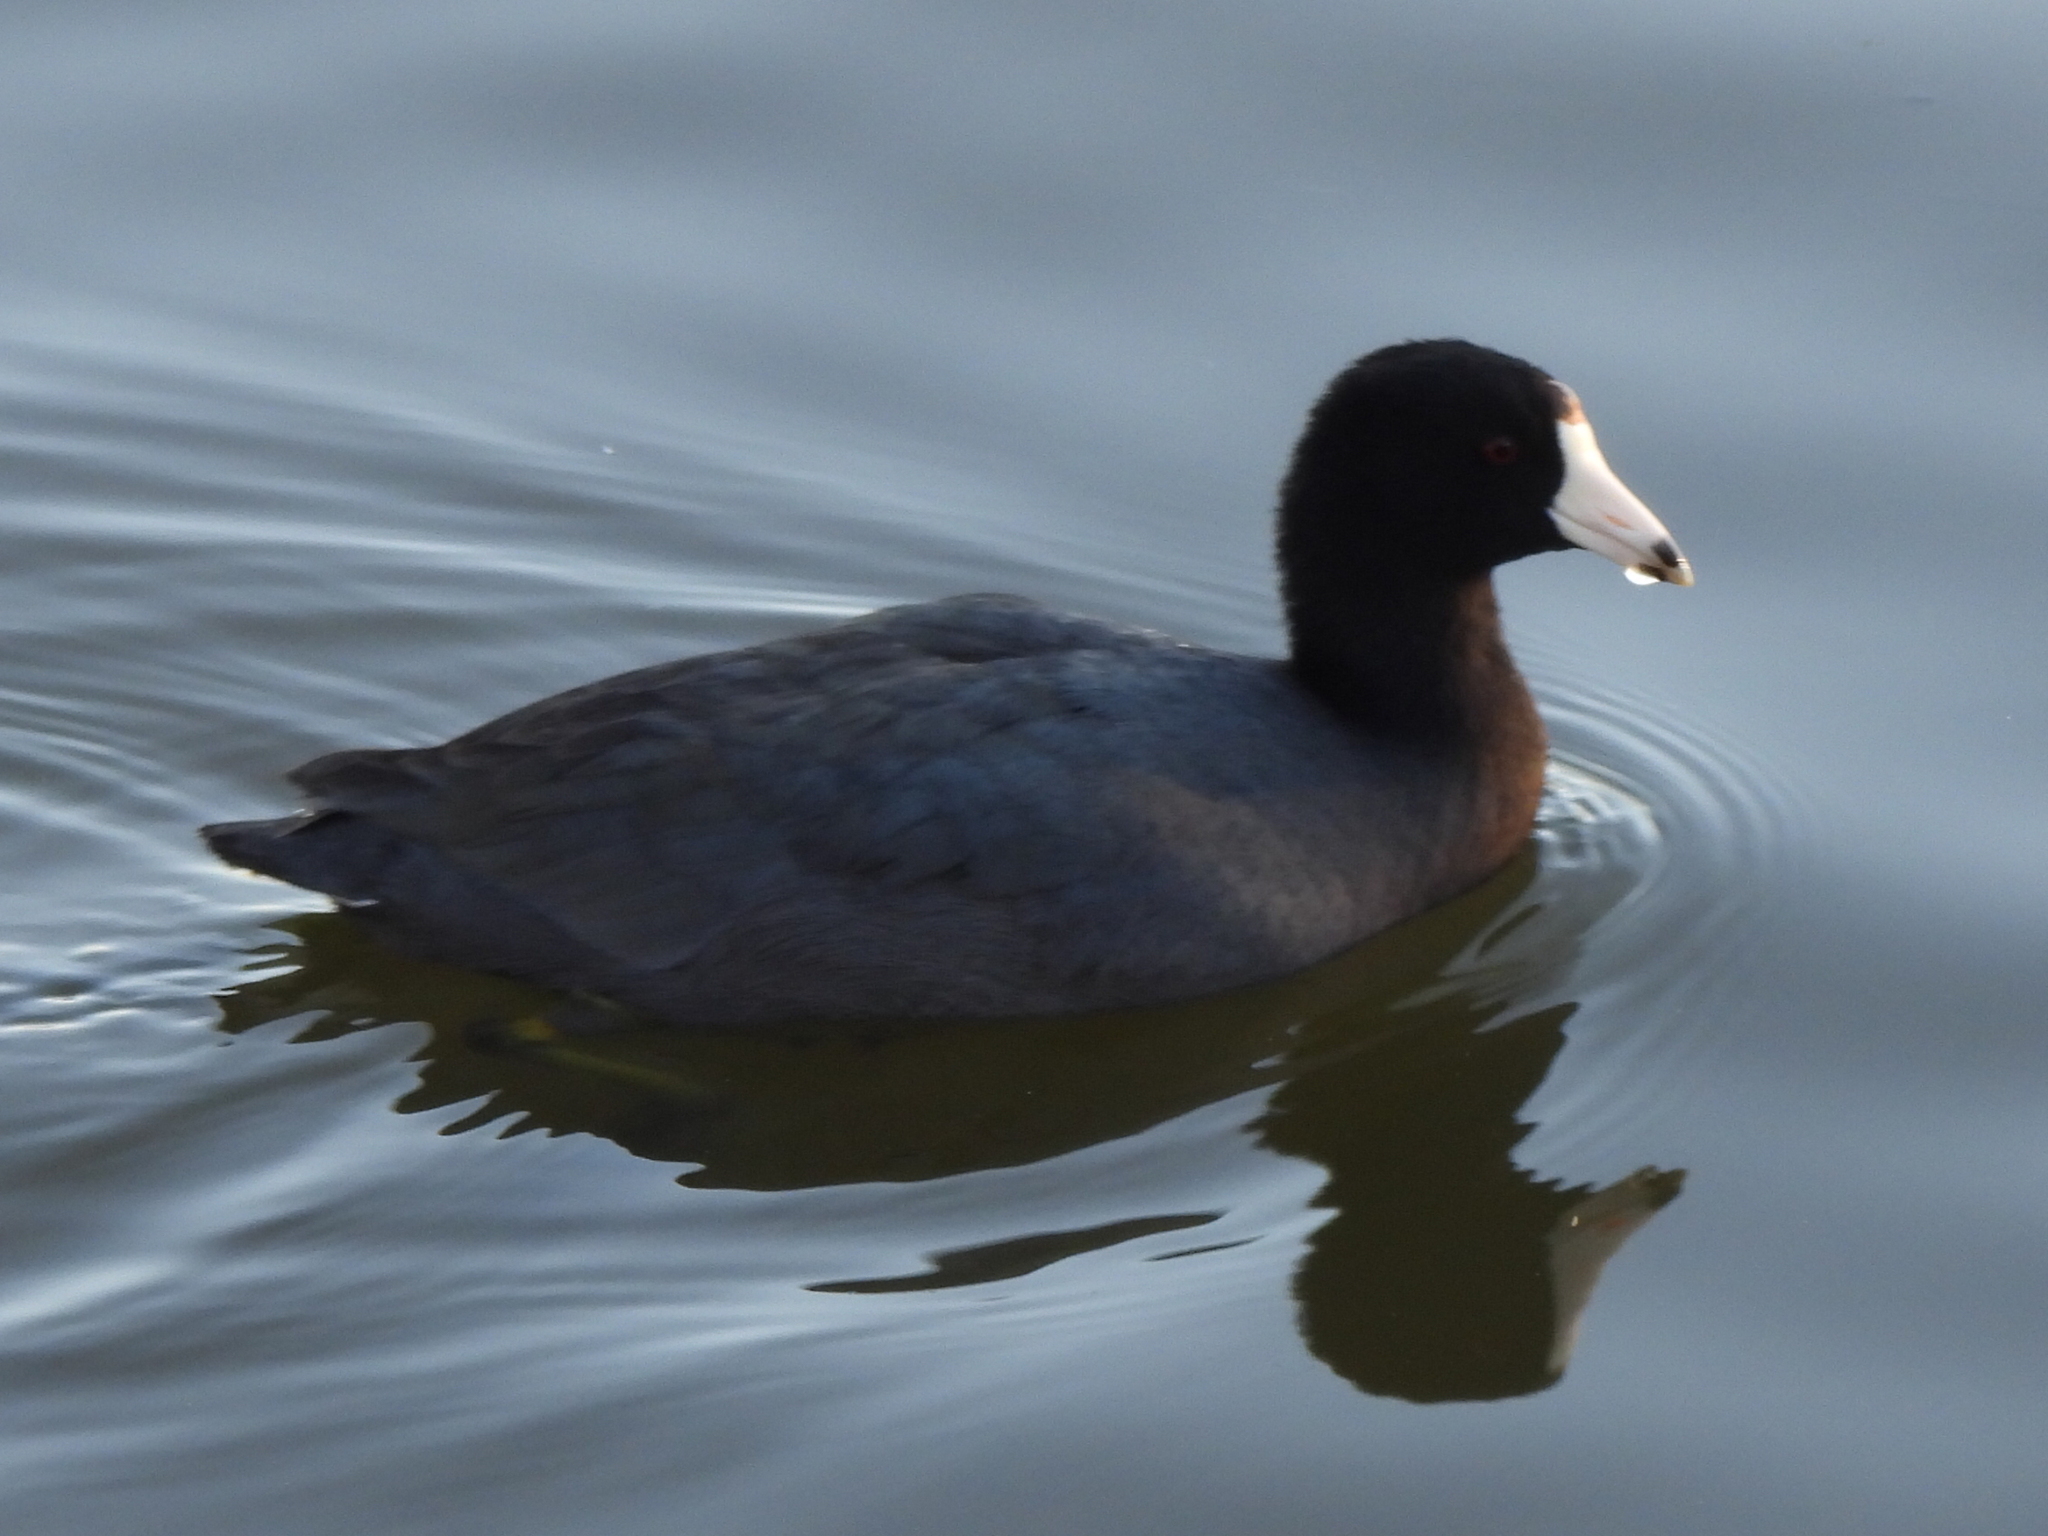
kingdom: Animalia
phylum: Chordata
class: Aves
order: Gruiformes
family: Rallidae
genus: Fulica
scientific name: Fulica americana
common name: American coot
